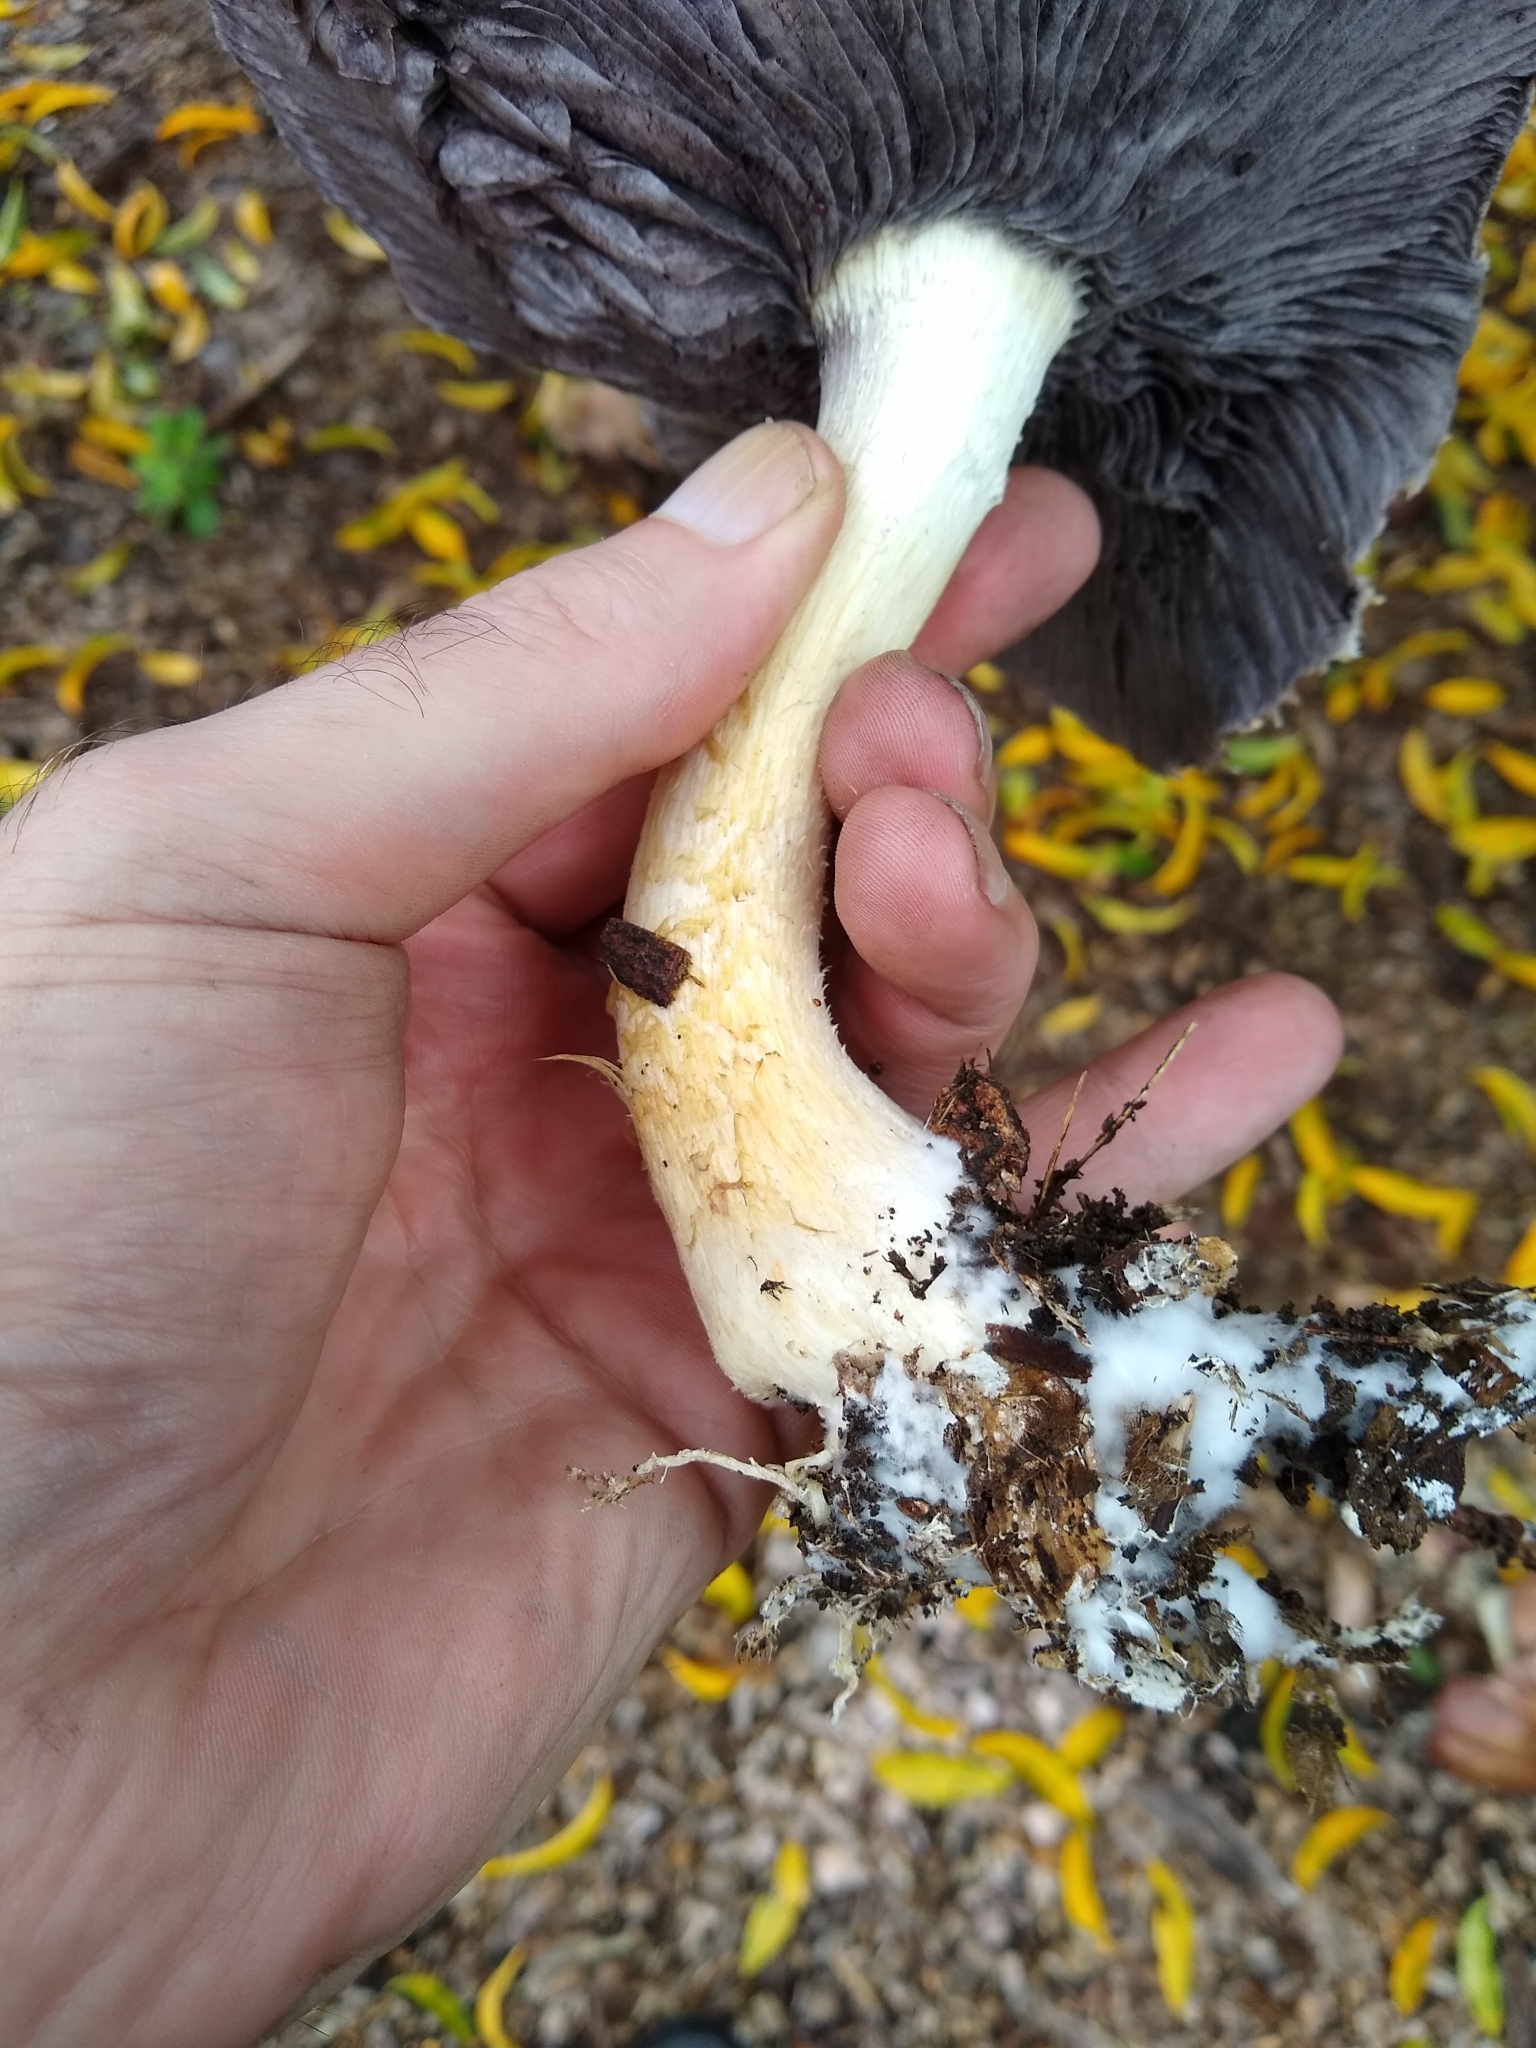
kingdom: Fungi
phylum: Basidiomycota
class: Agaricomycetes
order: Agaricales
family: Strophariaceae
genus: Stropharia
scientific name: Stropharia rugosoannulata
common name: Wine roundhead
